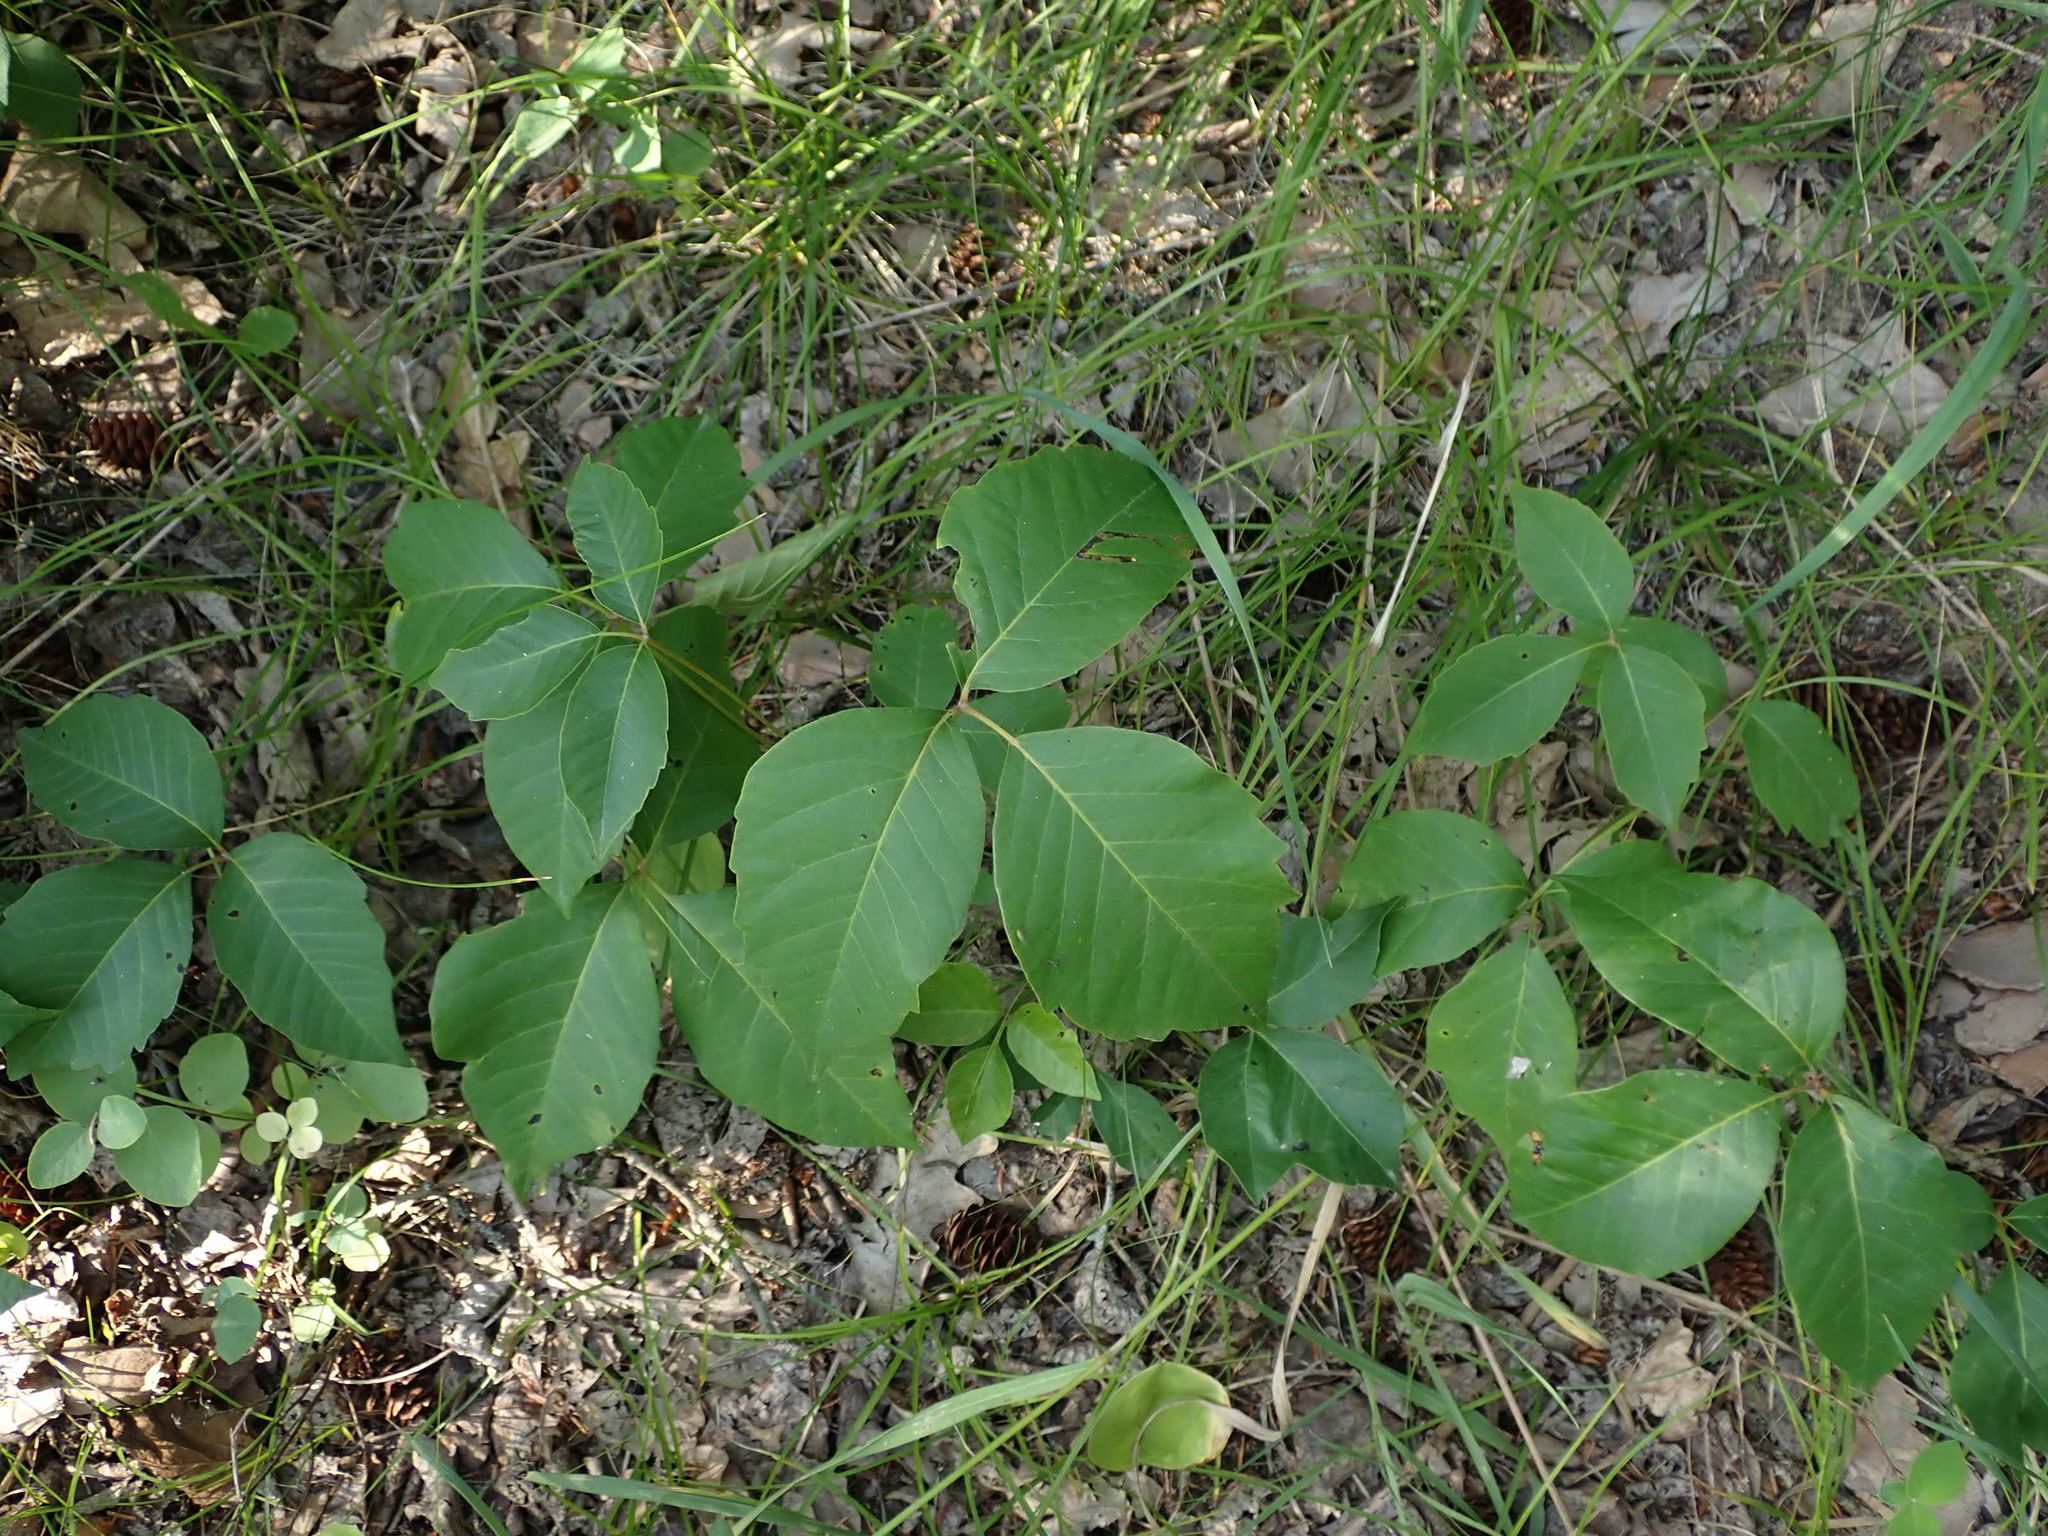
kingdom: Plantae
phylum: Tracheophyta
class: Magnoliopsida
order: Sapindales
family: Anacardiaceae
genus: Toxicodendron
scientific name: Toxicodendron rydbergii
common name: Rydberg's poison-ivy
